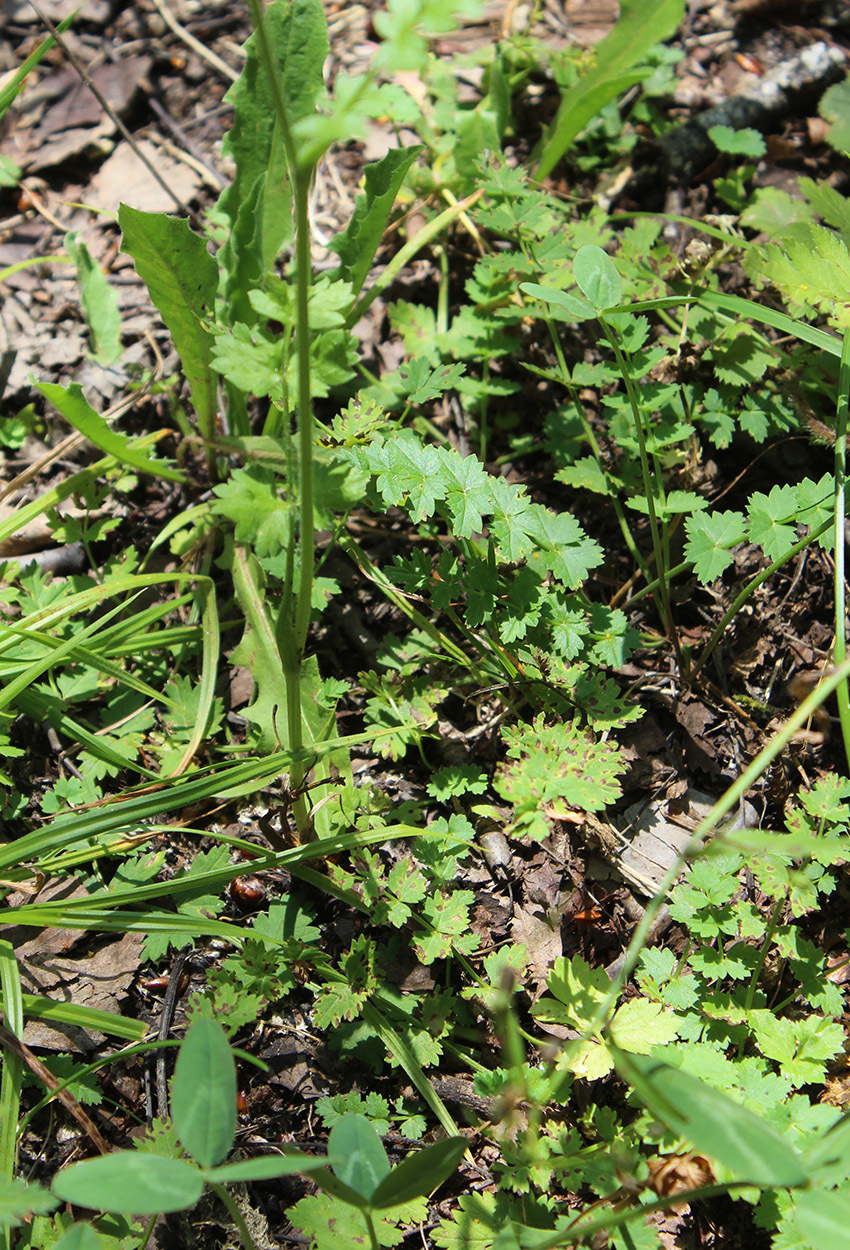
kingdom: Plantae
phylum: Tracheophyta
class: Magnoliopsida
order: Apiales
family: Apiaceae
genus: Pastinaca
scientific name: Pastinaca armena
